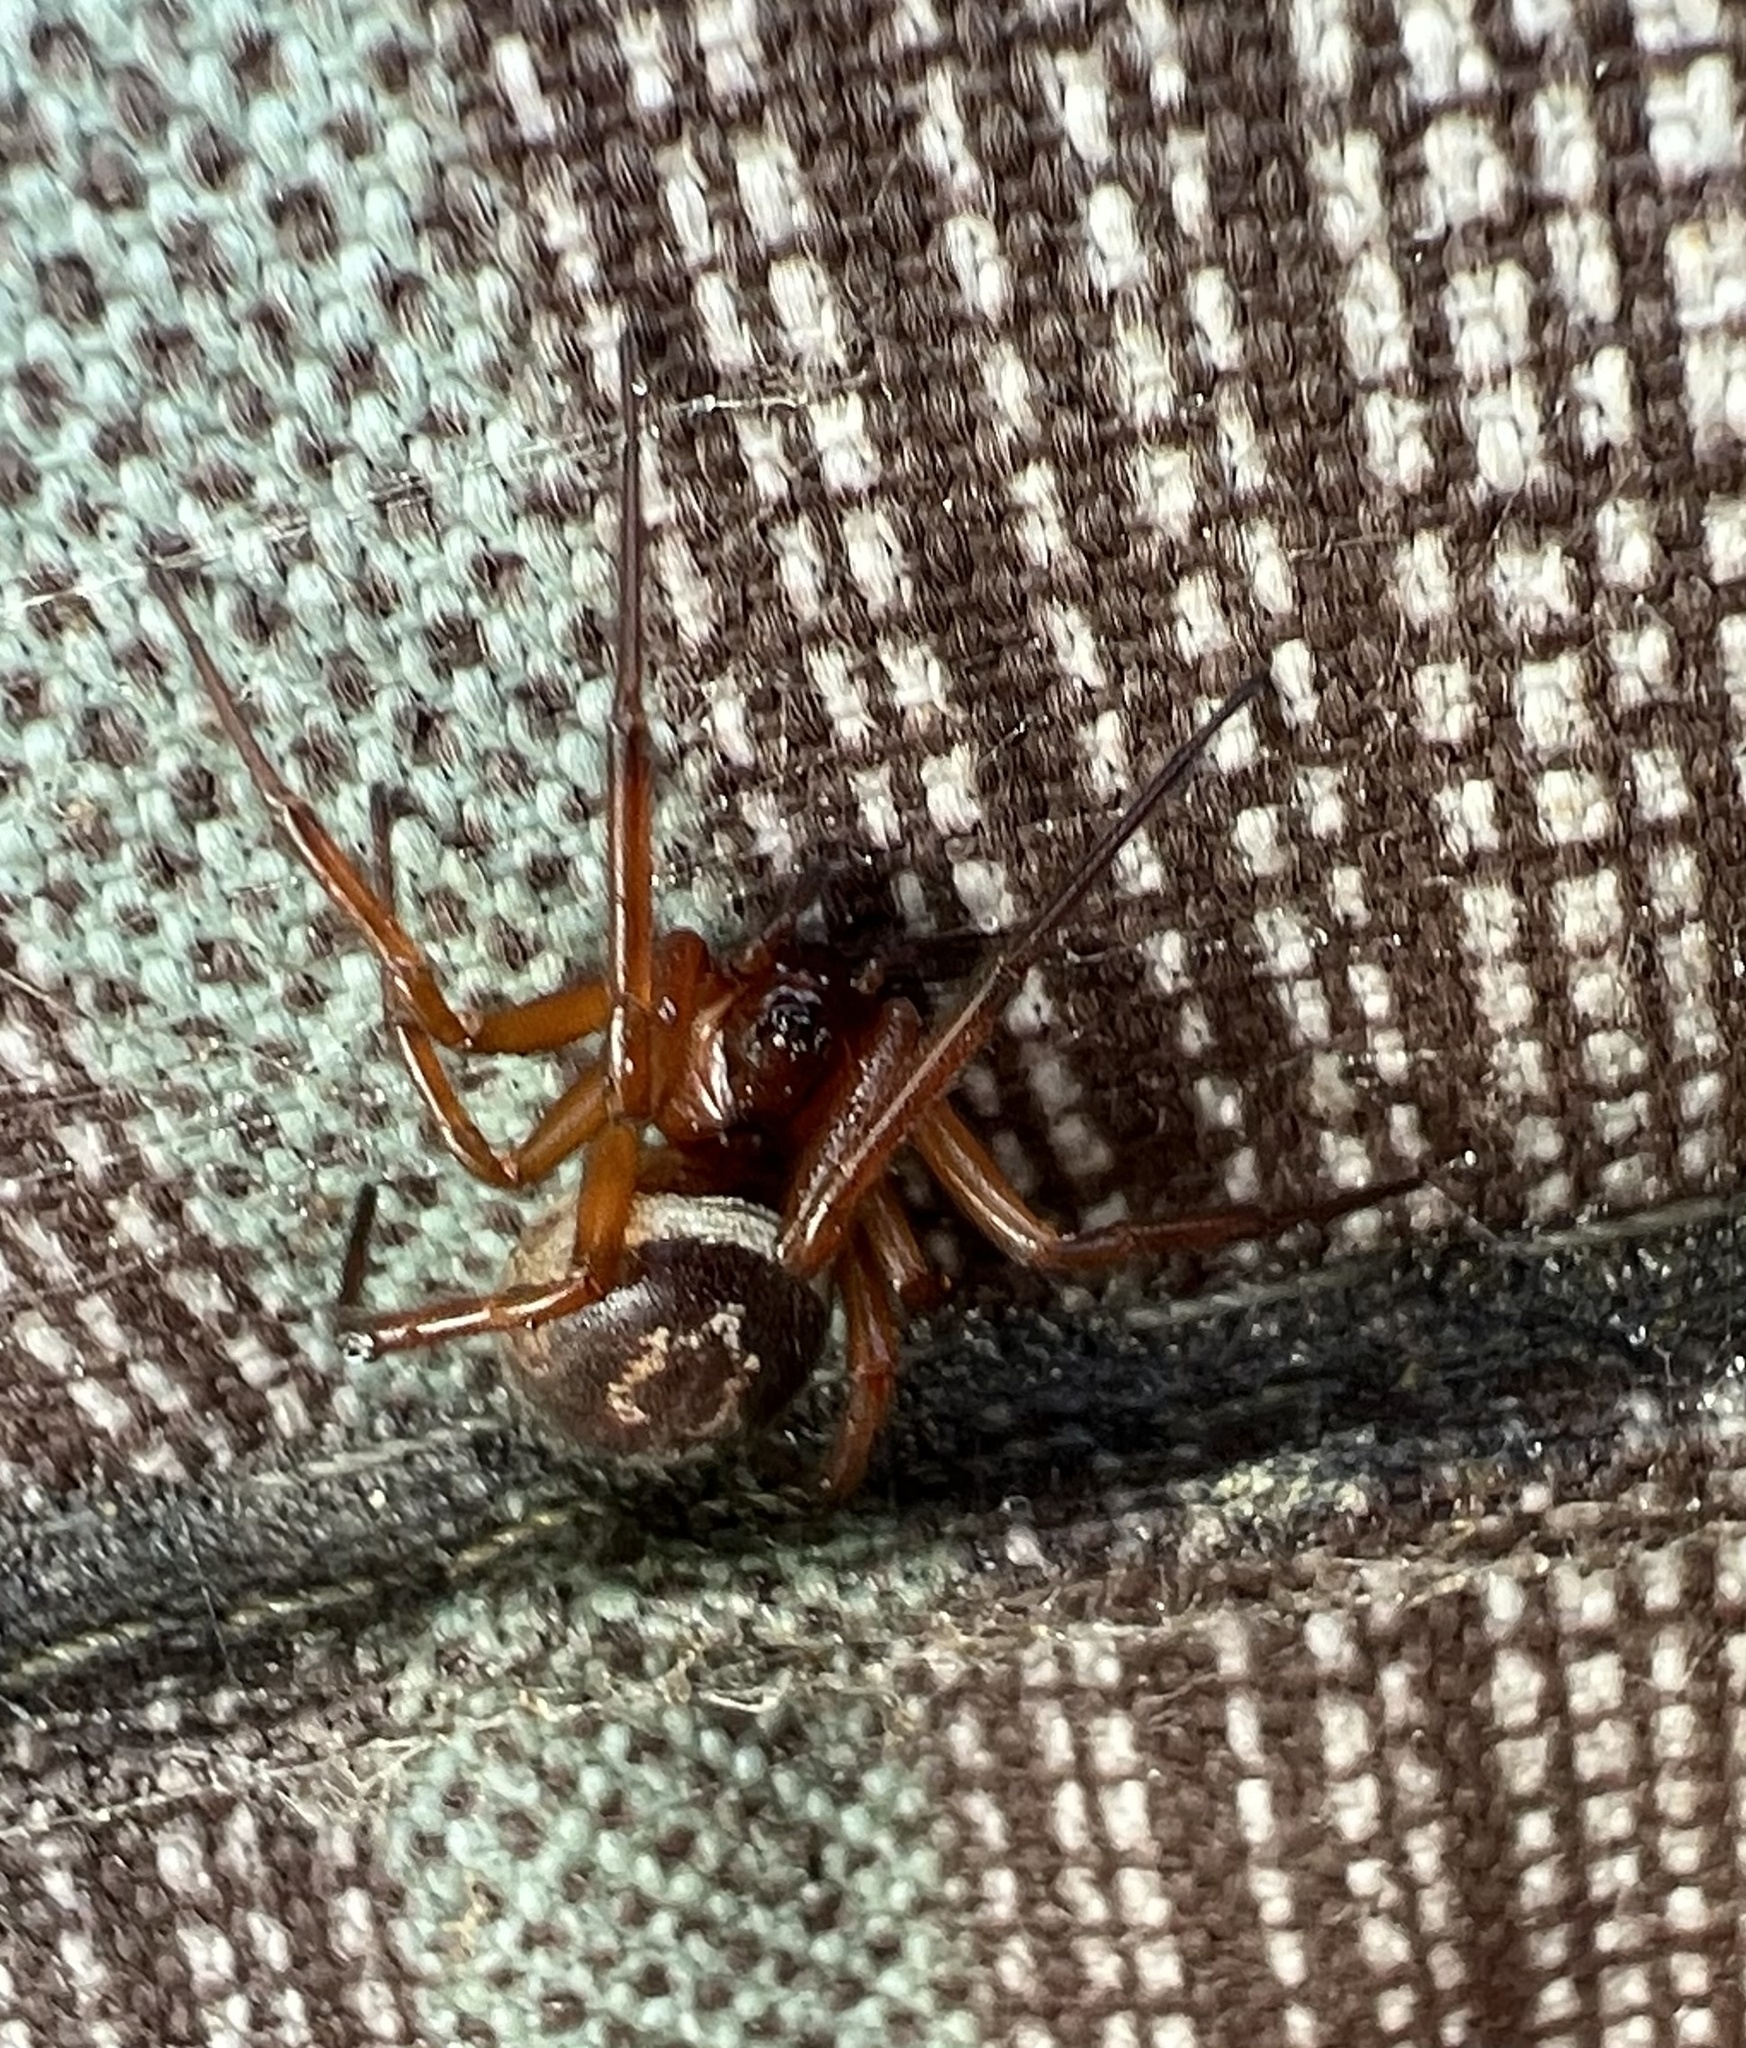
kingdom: Animalia
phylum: Arthropoda
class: Arachnida
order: Araneae
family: Theridiidae
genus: Steatoda
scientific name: Steatoda nobilis
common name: Cobweb weaver
